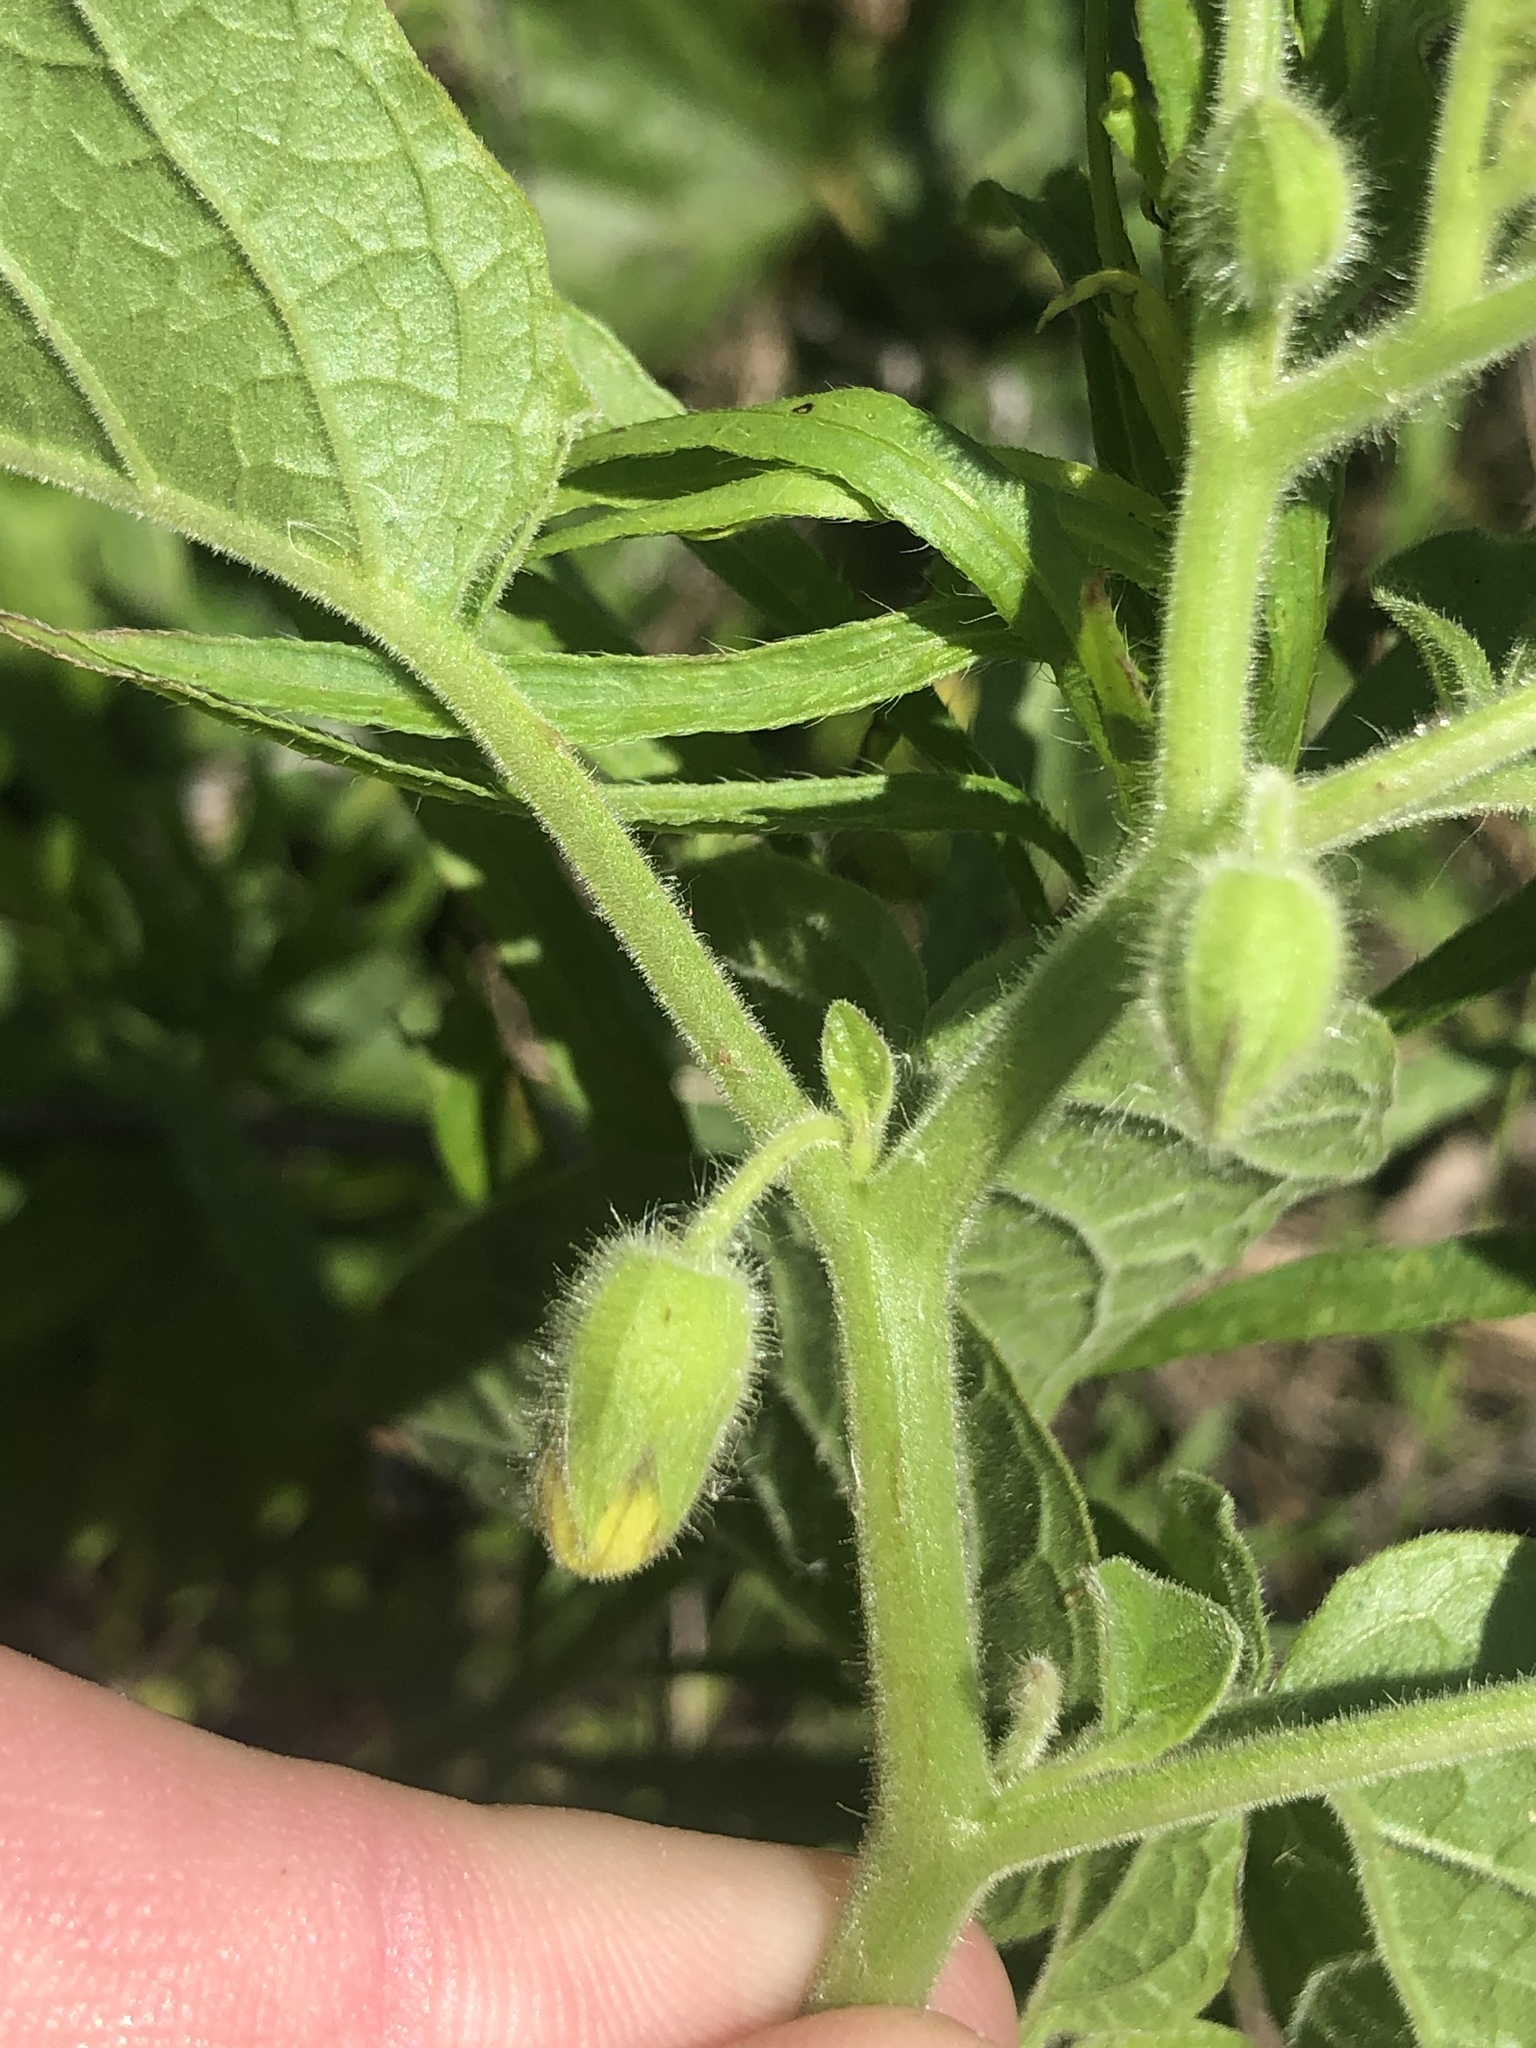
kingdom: Plantae
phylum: Tracheophyta
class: Magnoliopsida
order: Solanales
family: Solanaceae
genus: Physalis
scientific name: Physalis heterophylla
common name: Clammy ground-cherry
